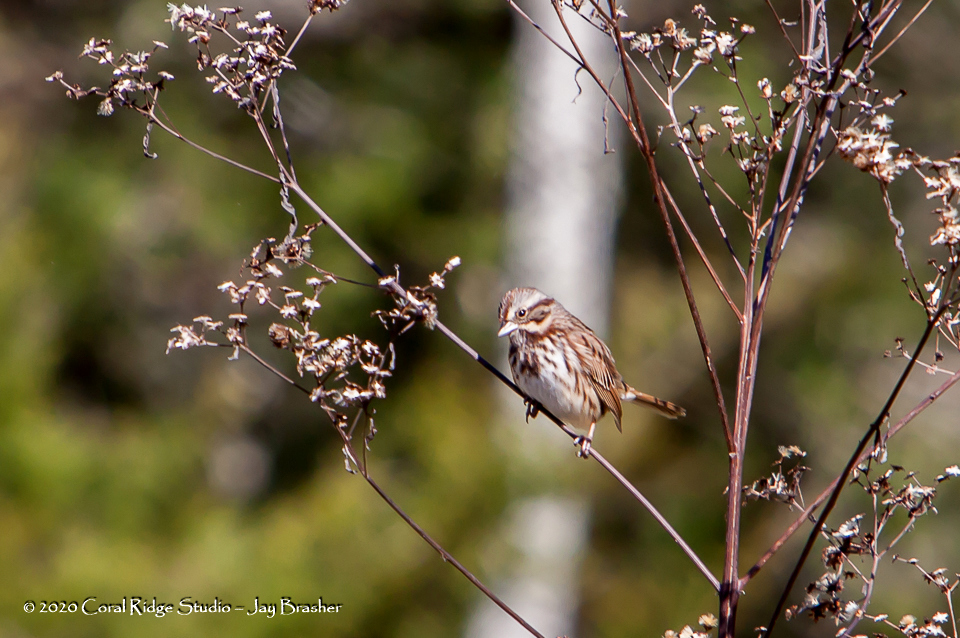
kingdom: Animalia
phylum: Chordata
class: Aves
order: Passeriformes
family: Passerellidae
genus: Melospiza
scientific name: Melospiza melodia
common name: Song sparrow
